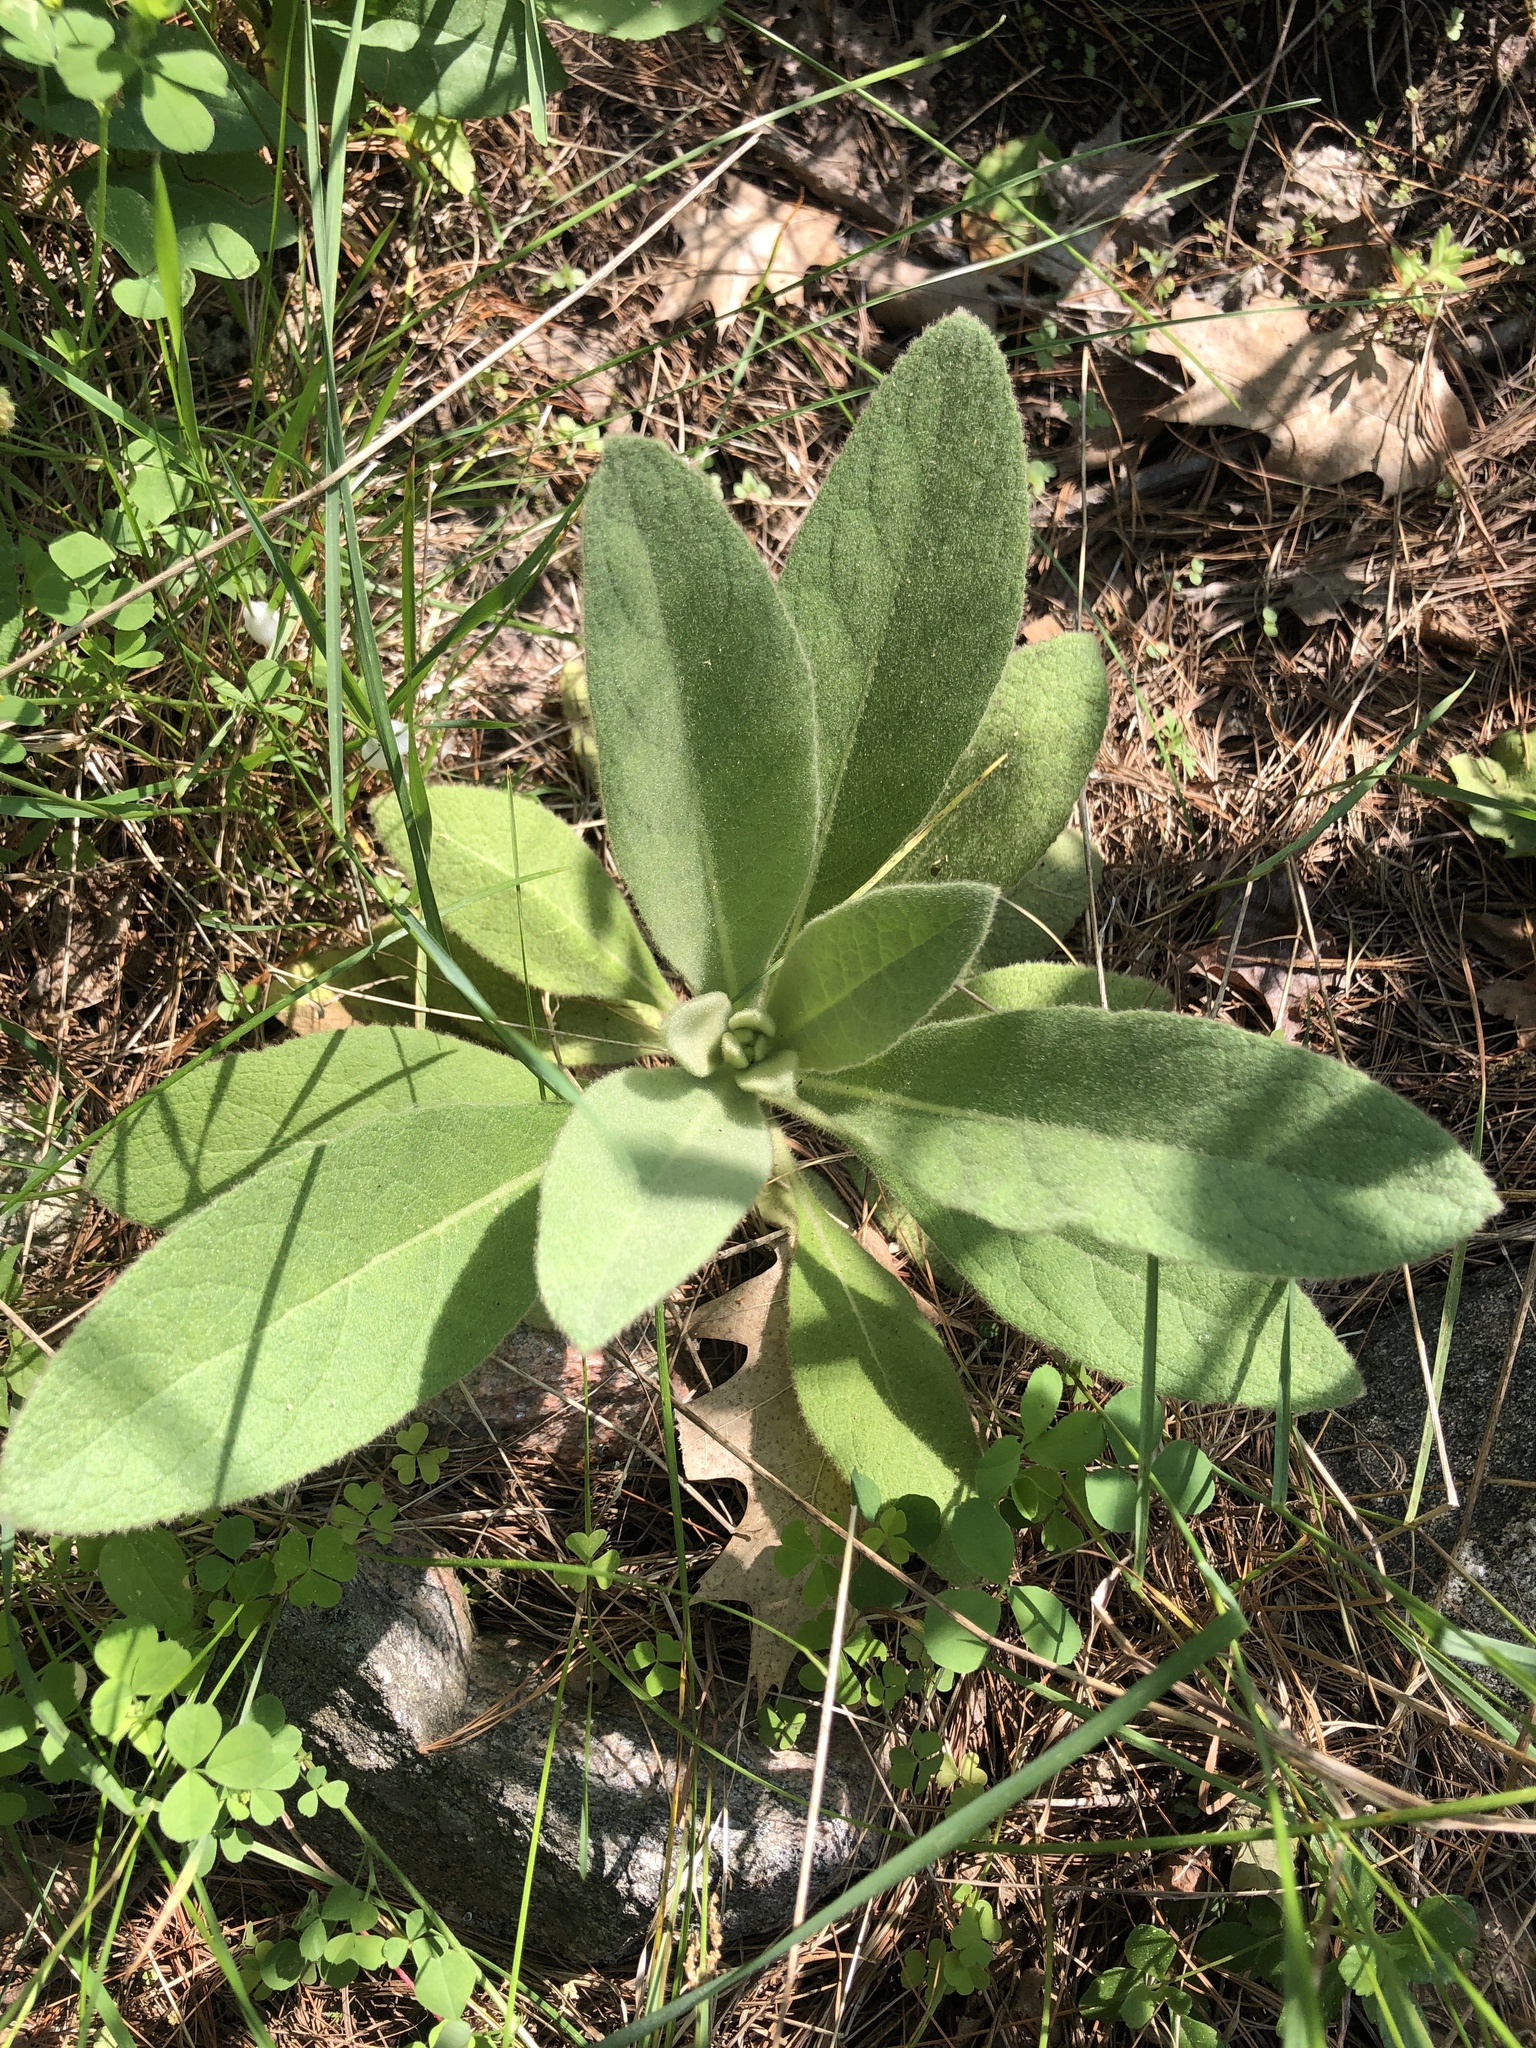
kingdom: Plantae
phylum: Tracheophyta
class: Magnoliopsida
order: Lamiales
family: Scrophulariaceae
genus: Verbascum
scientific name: Verbascum thapsus
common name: Common mullein
